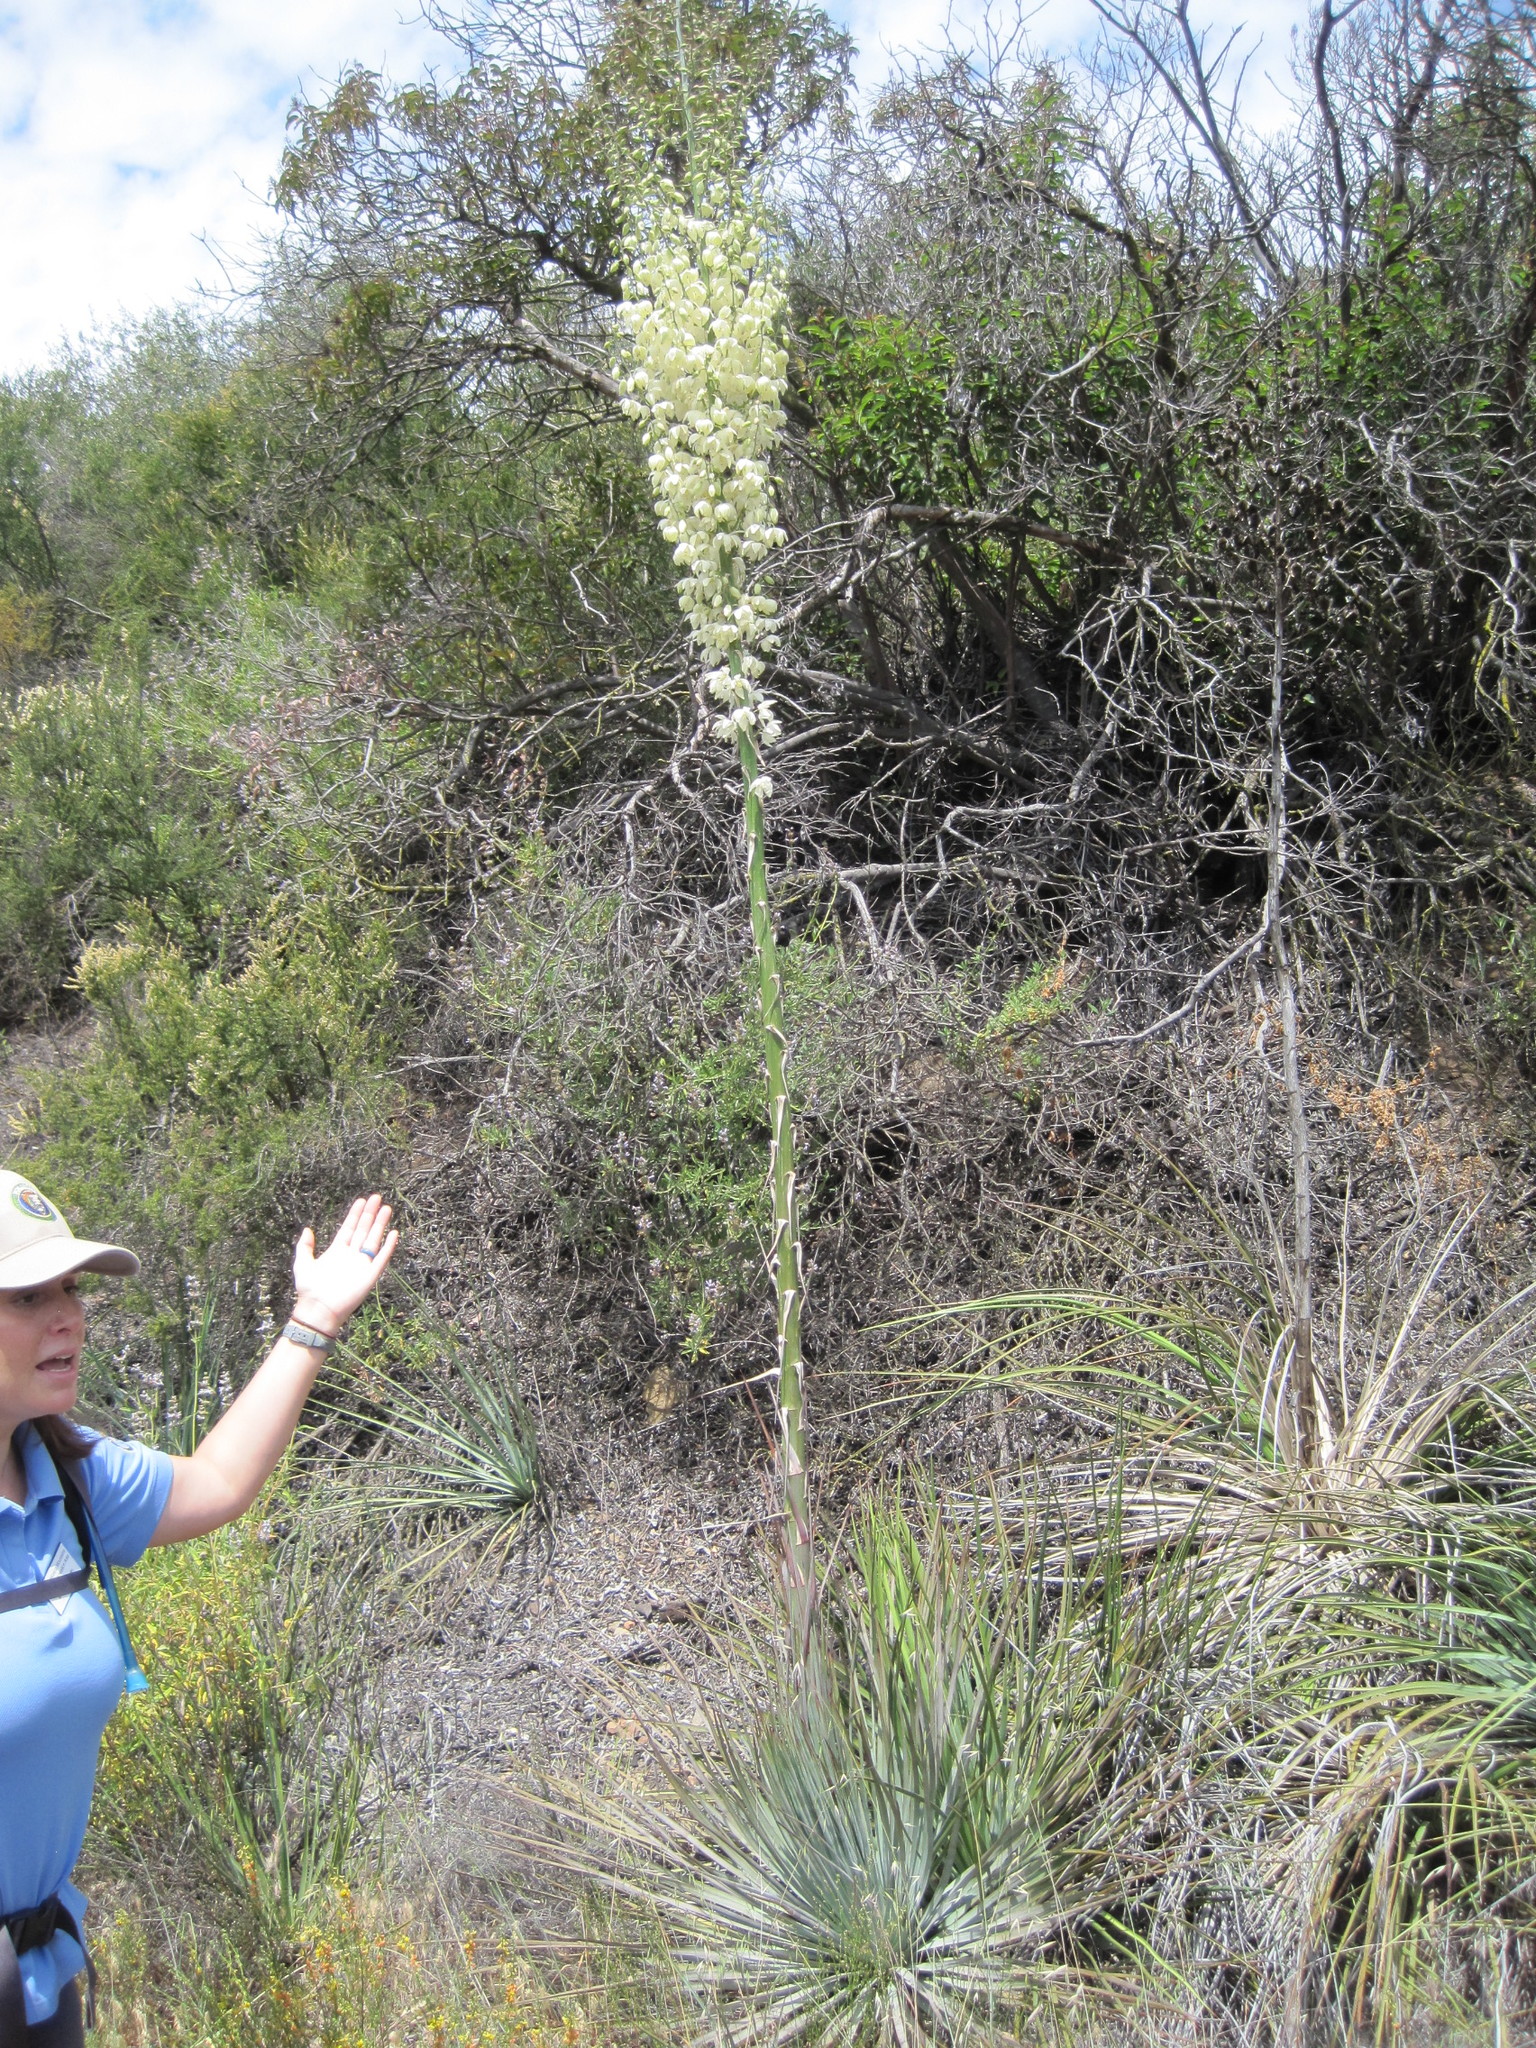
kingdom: Plantae
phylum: Tracheophyta
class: Liliopsida
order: Asparagales
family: Asparagaceae
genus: Hesperoyucca
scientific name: Hesperoyucca whipplei
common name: Our lord's-candle
